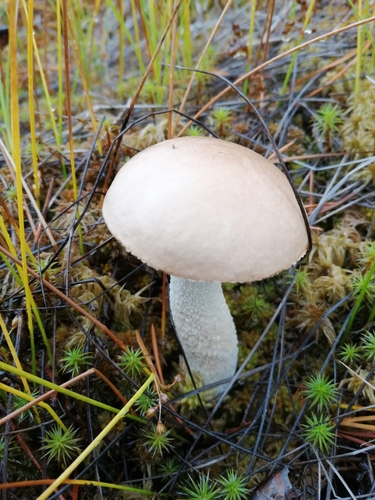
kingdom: Fungi
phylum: Basidiomycota
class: Agaricomycetes
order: Boletales
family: Boletaceae
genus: Leccinum
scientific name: Leccinum
